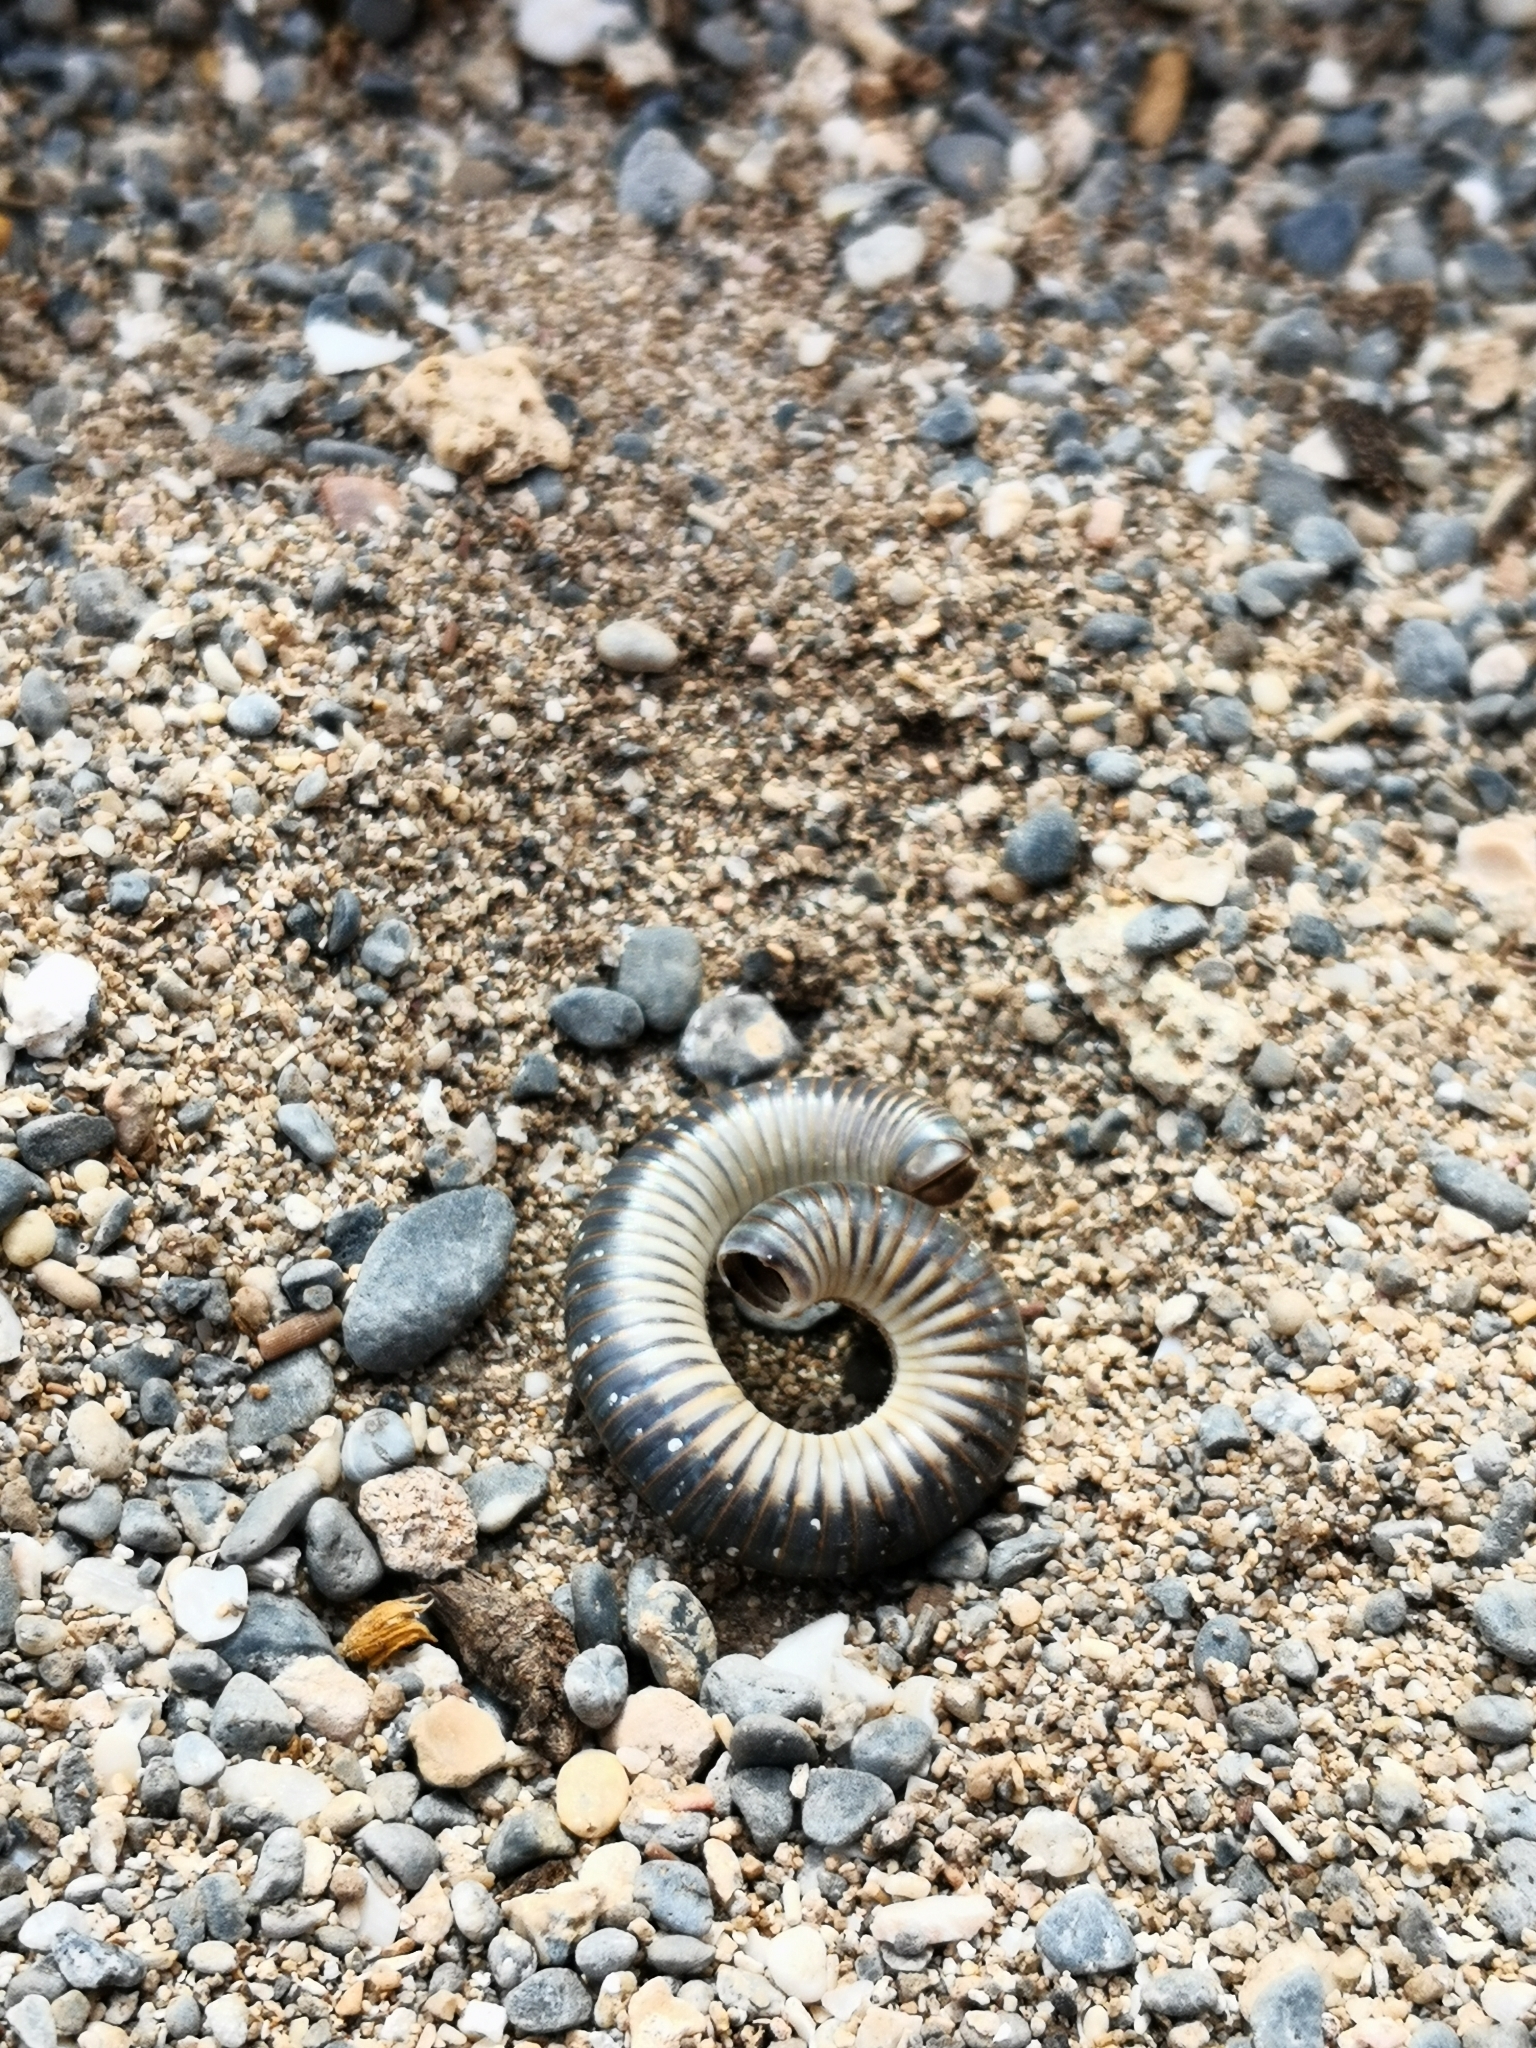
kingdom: Animalia
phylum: Arthropoda
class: Diplopoda
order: Julida
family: Julidae
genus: Pachyiulus
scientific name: Pachyiulus flavipes
